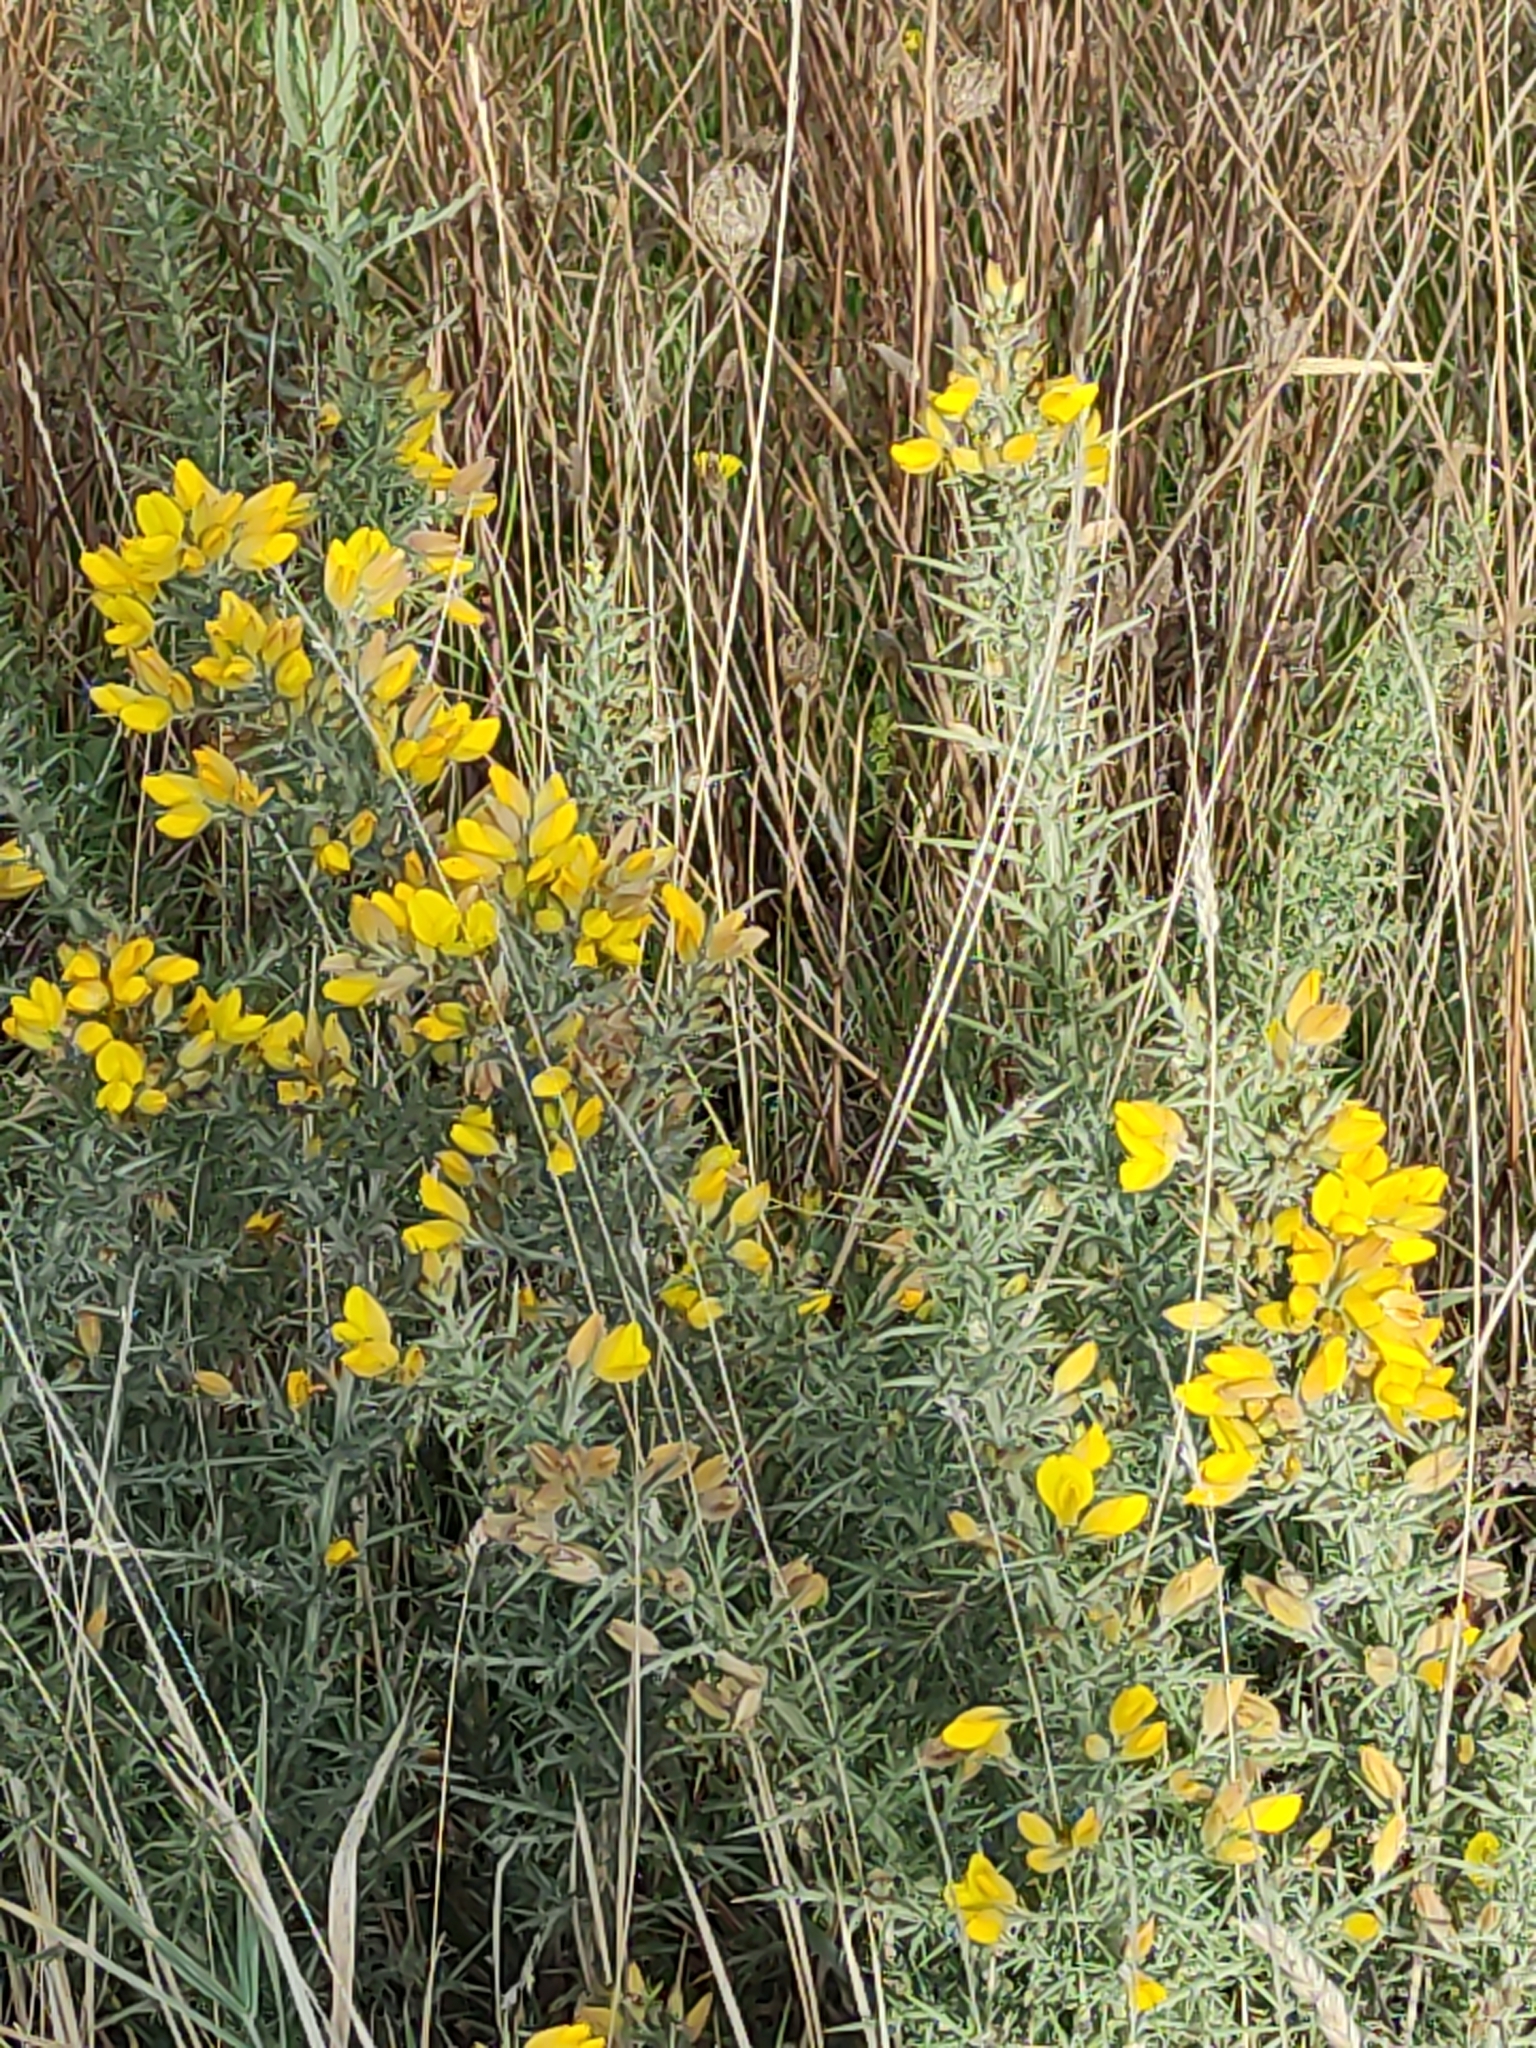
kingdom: Plantae
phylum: Tracheophyta
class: Magnoliopsida
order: Fabales
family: Fabaceae
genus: Ulex
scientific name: Ulex europaeus
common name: Common gorse
